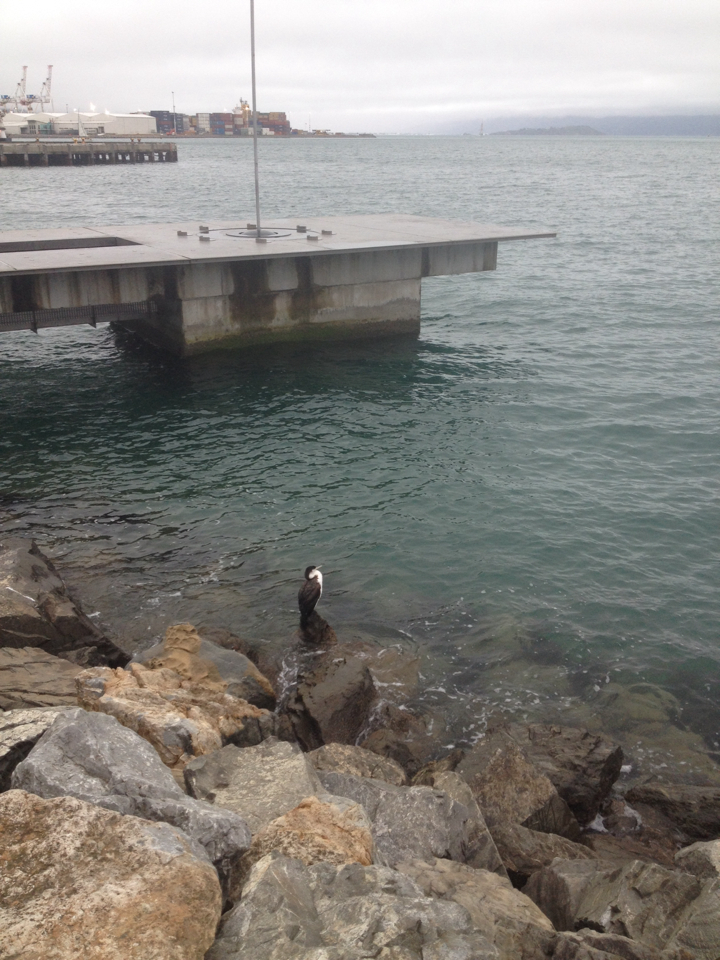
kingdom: Animalia
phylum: Chordata
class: Aves
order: Suliformes
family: Phalacrocoracidae
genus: Phalacrocorax
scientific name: Phalacrocorax varius
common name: Pied cormorant
